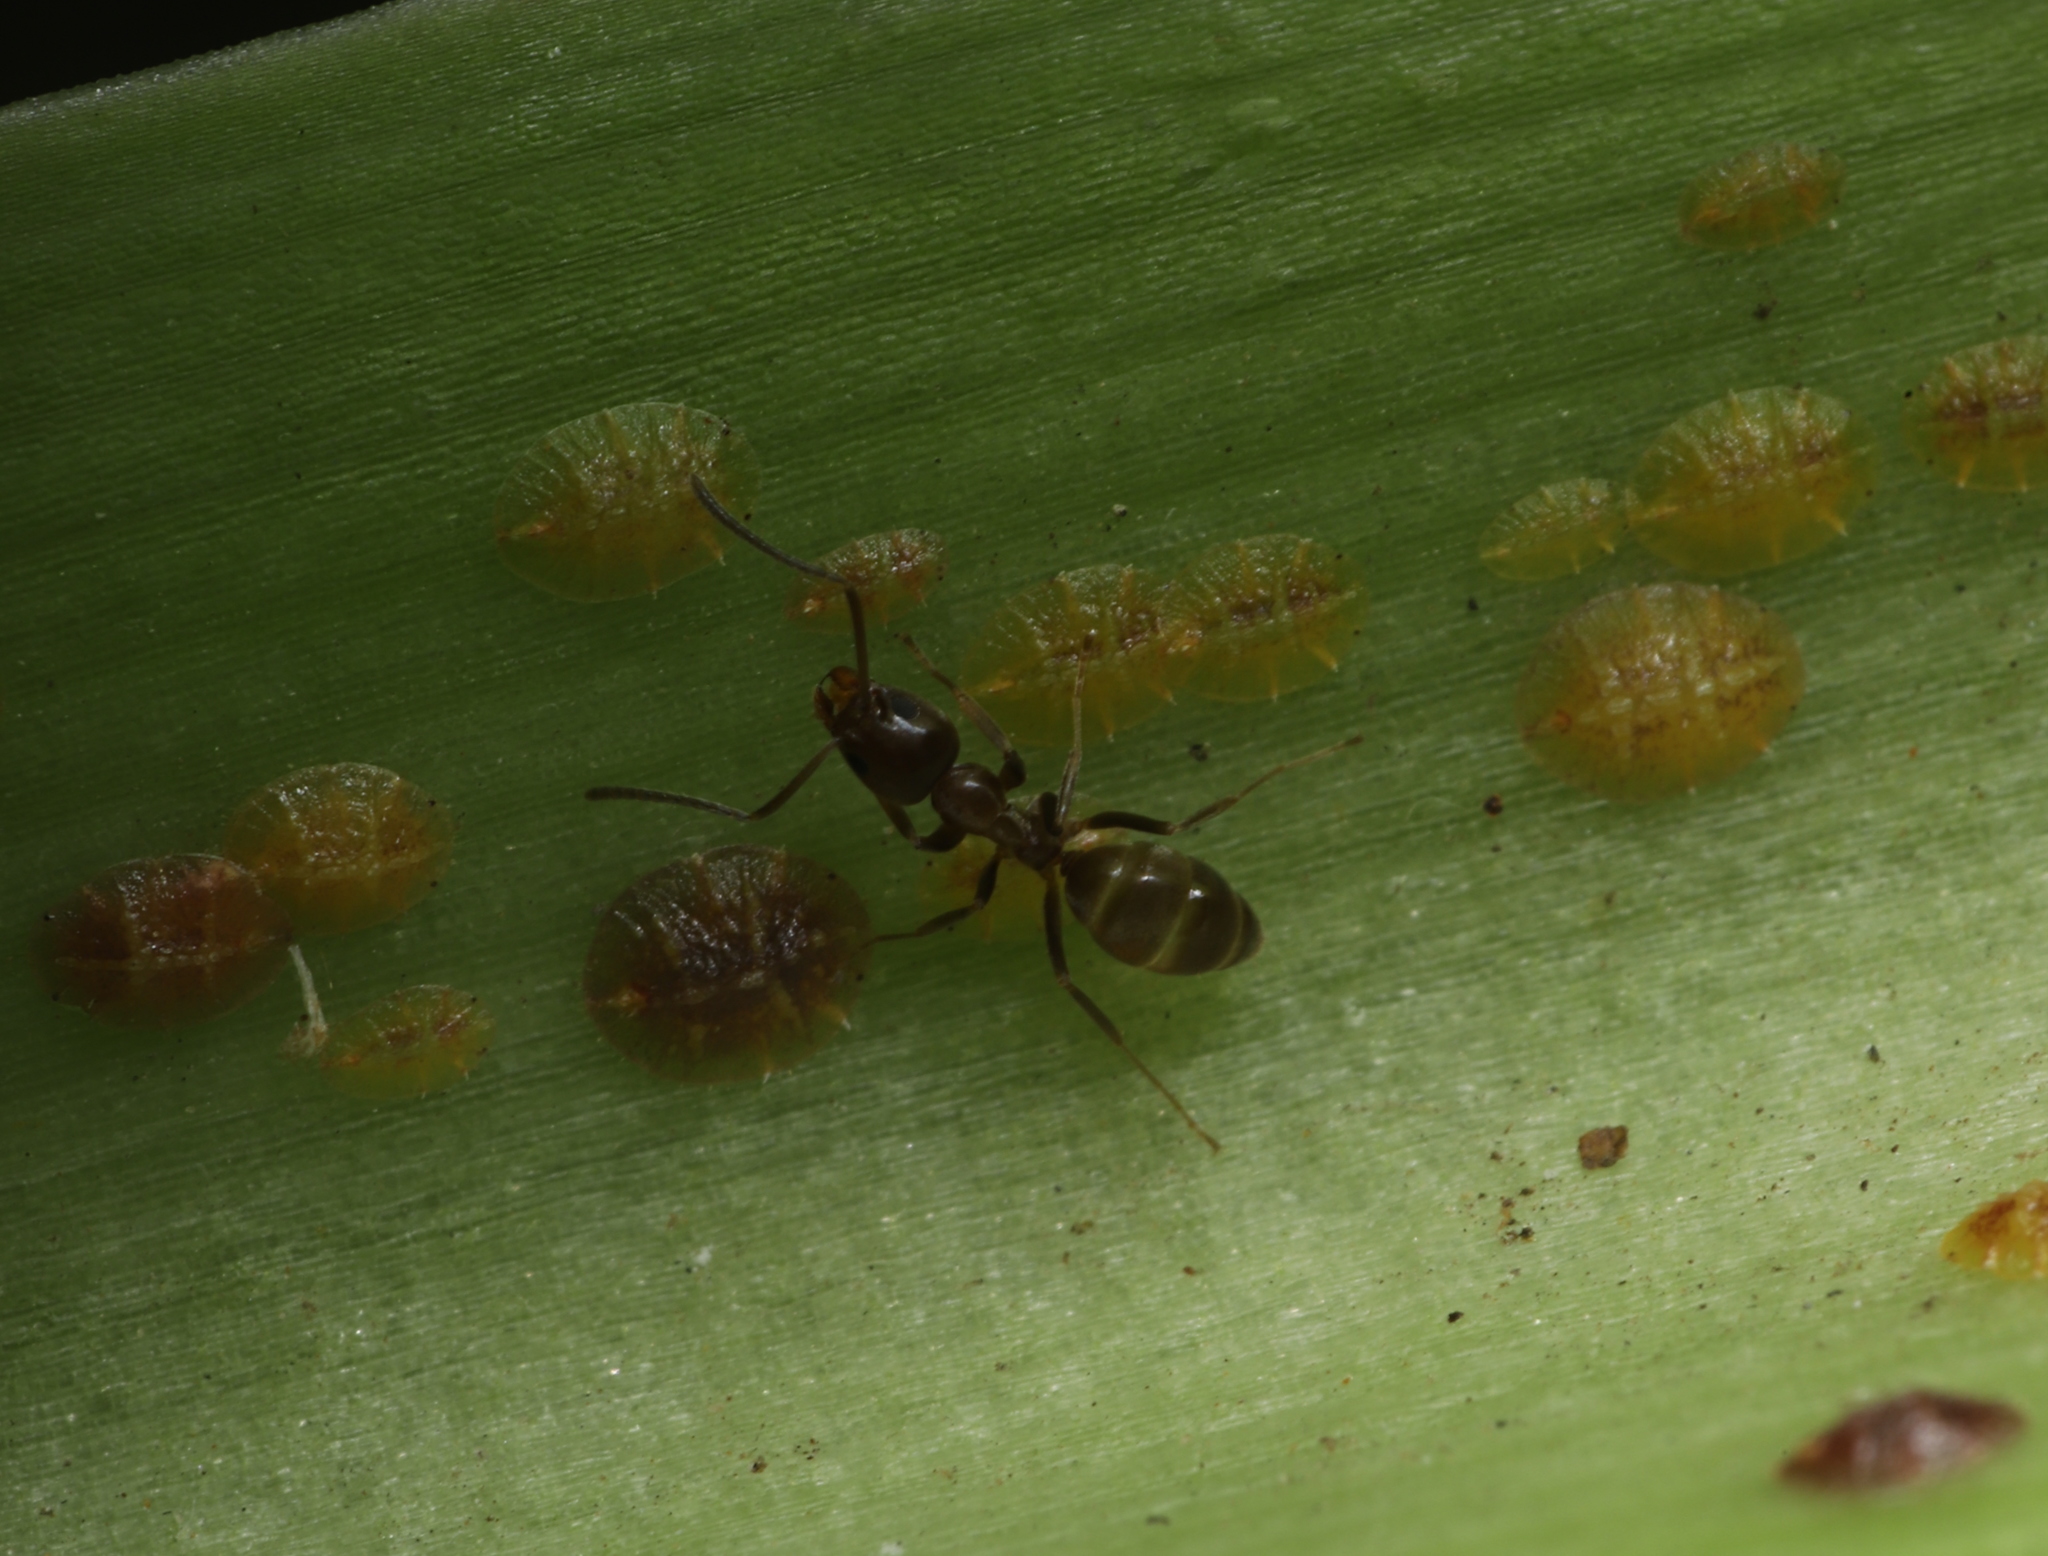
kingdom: Animalia
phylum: Arthropoda
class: Insecta
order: Hymenoptera
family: Formicidae
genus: Linepithema
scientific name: Linepithema humile
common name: Argentine ant
